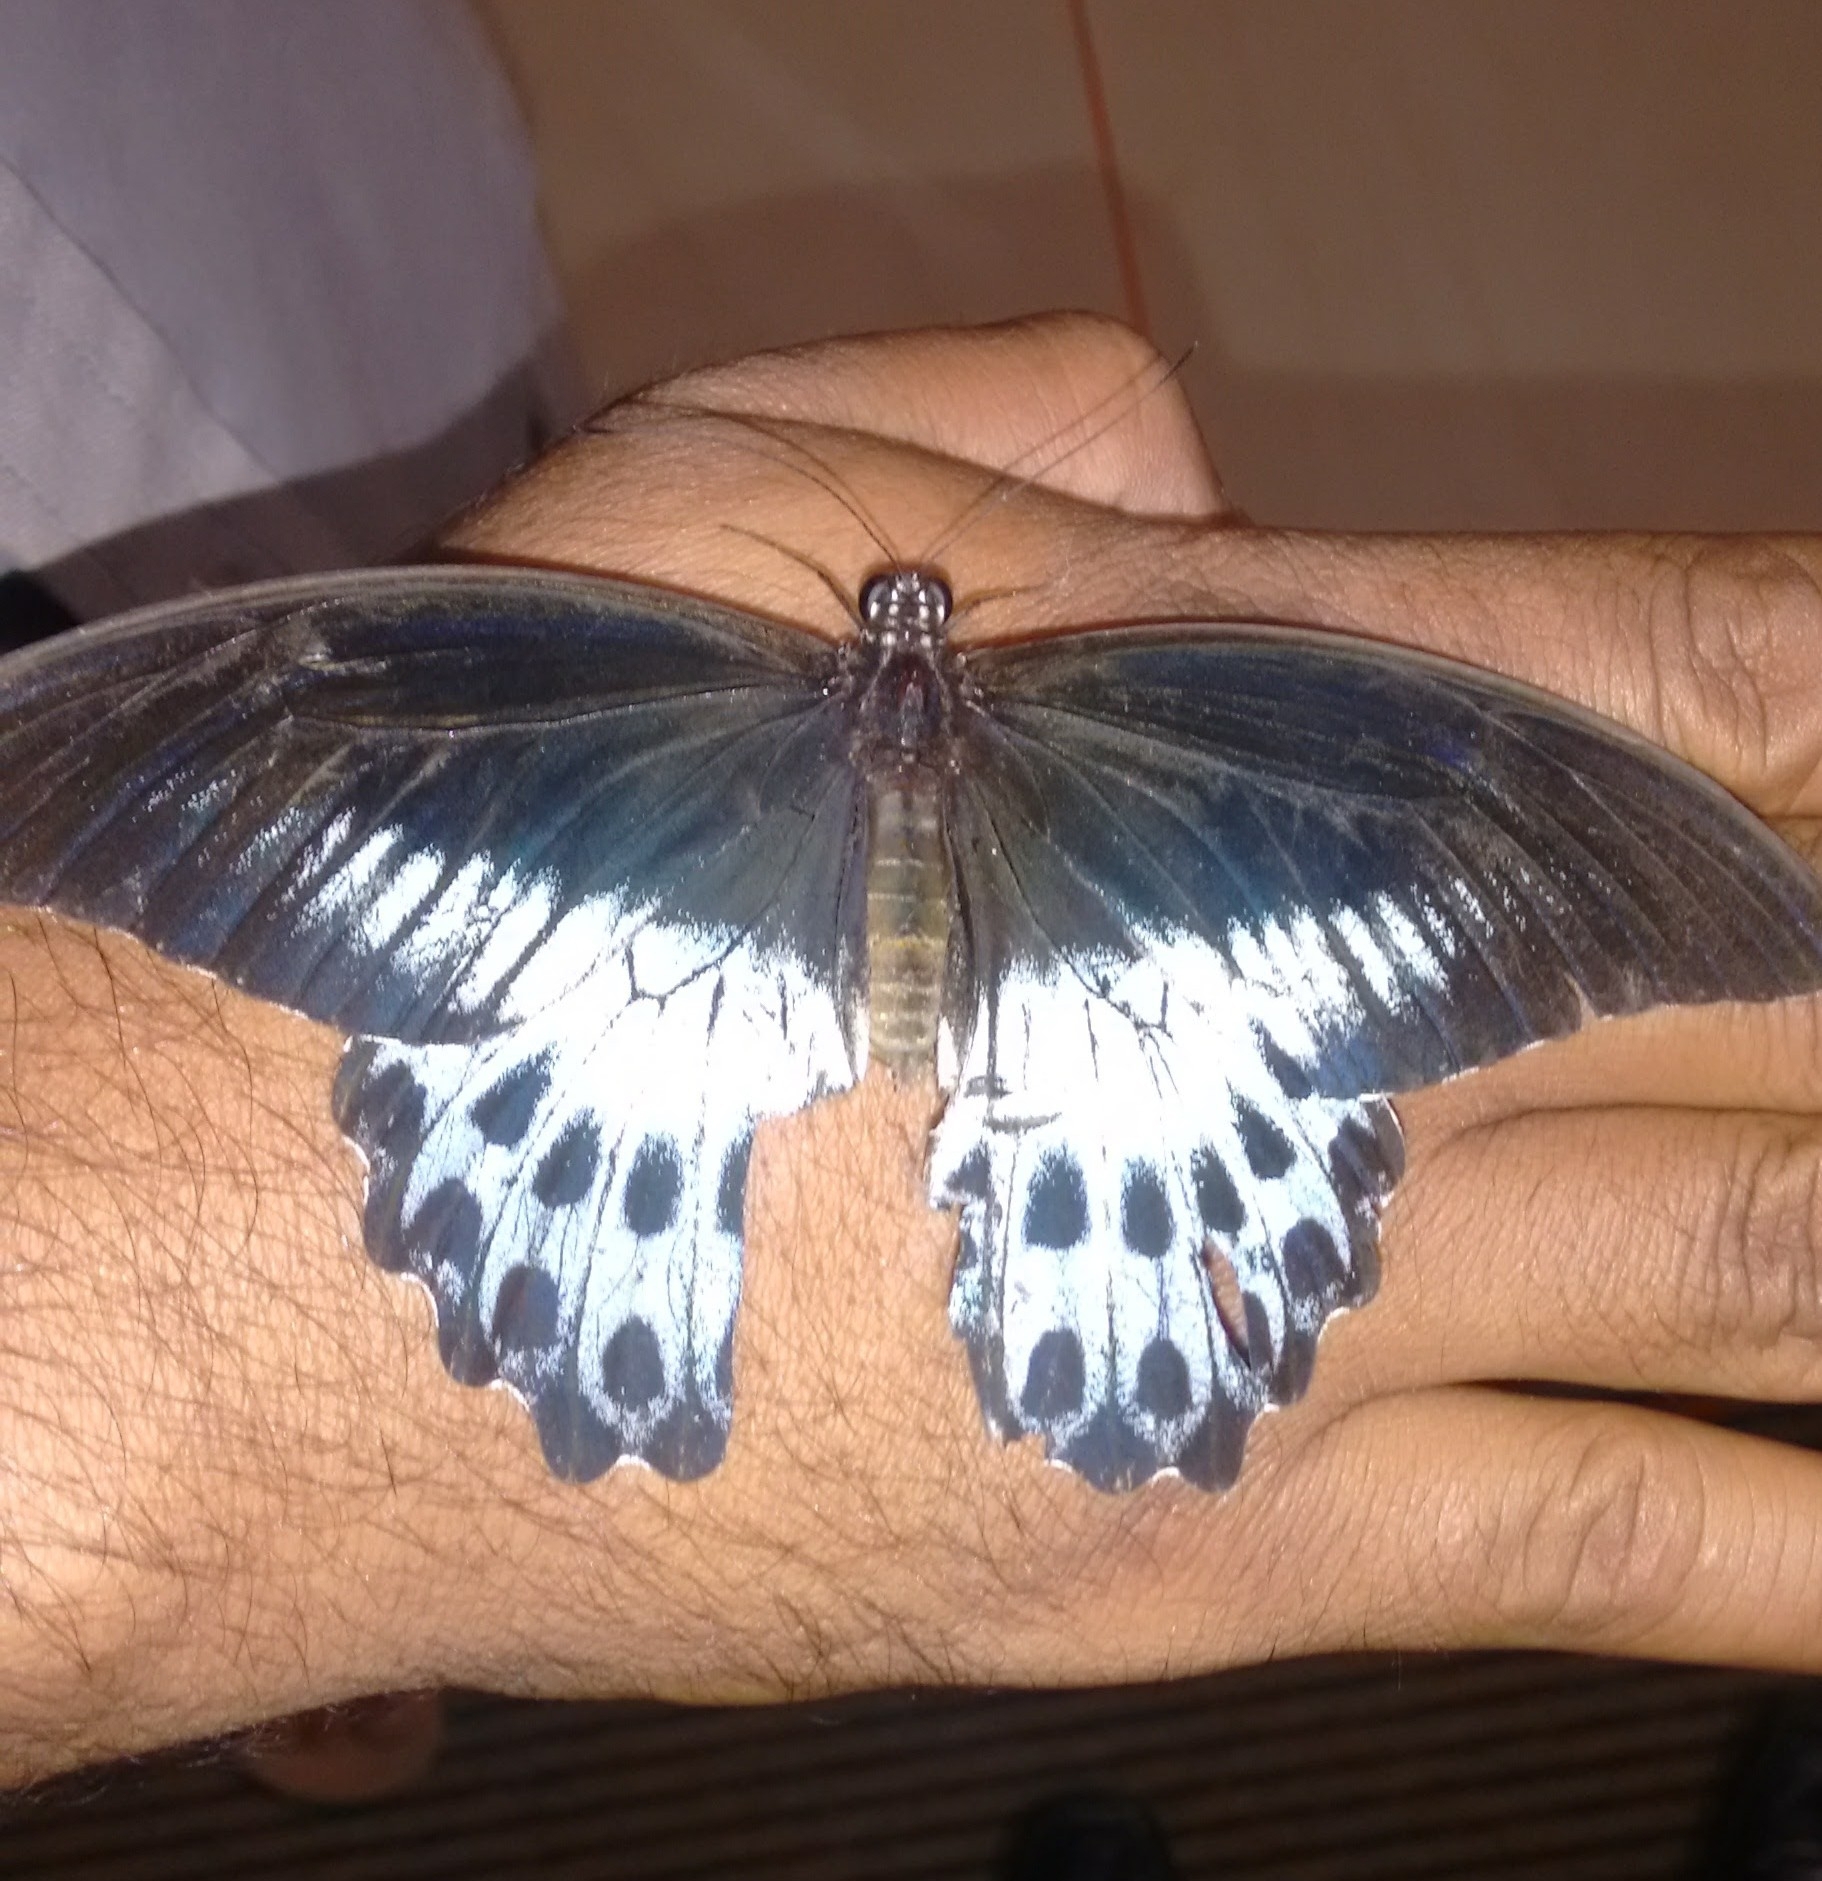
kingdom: Animalia
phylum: Arthropoda
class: Insecta
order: Lepidoptera
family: Papilionidae
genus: Papilio
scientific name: Papilio memnon
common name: Great mormon
